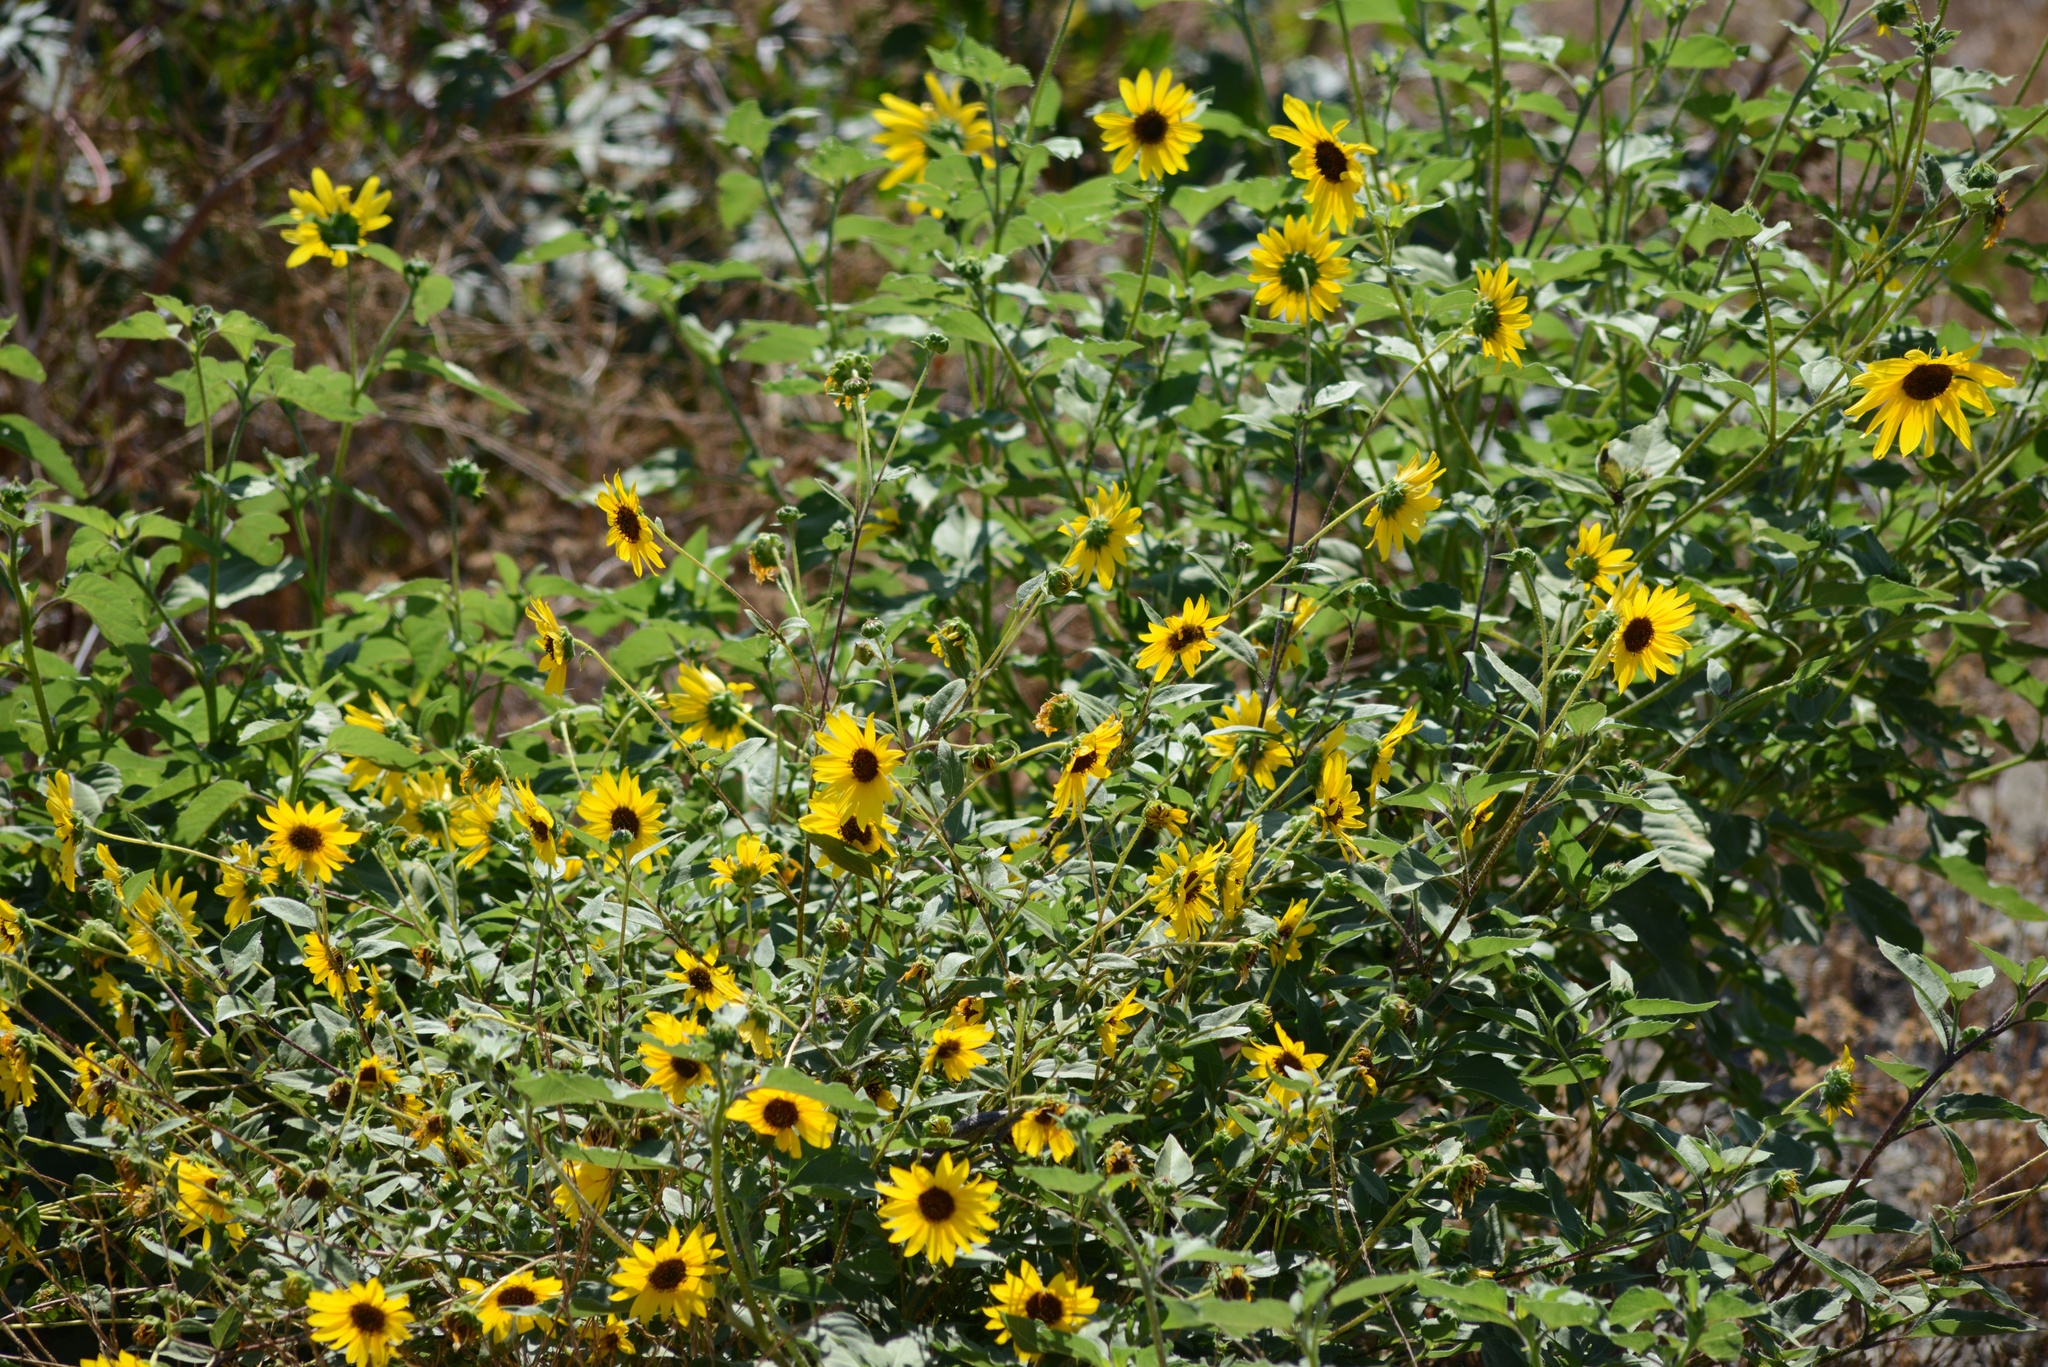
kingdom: Plantae
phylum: Tracheophyta
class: Magnoliopsida
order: Asterales
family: Asteraceae
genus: Encelia
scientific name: Encelia californica
